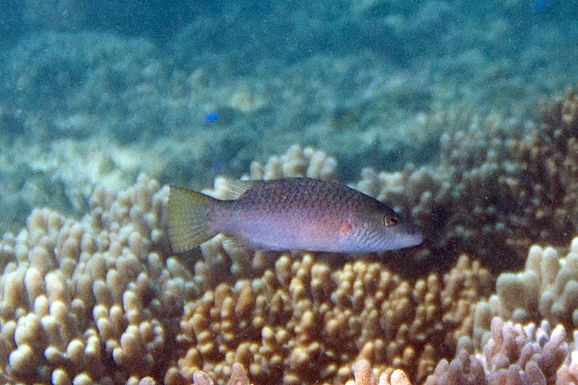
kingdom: Animalia
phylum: Chordata
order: Perciformes
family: Labridae
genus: Oxycheilinus
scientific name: Oxycheilinus digramma
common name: Bandcheek wrasse
